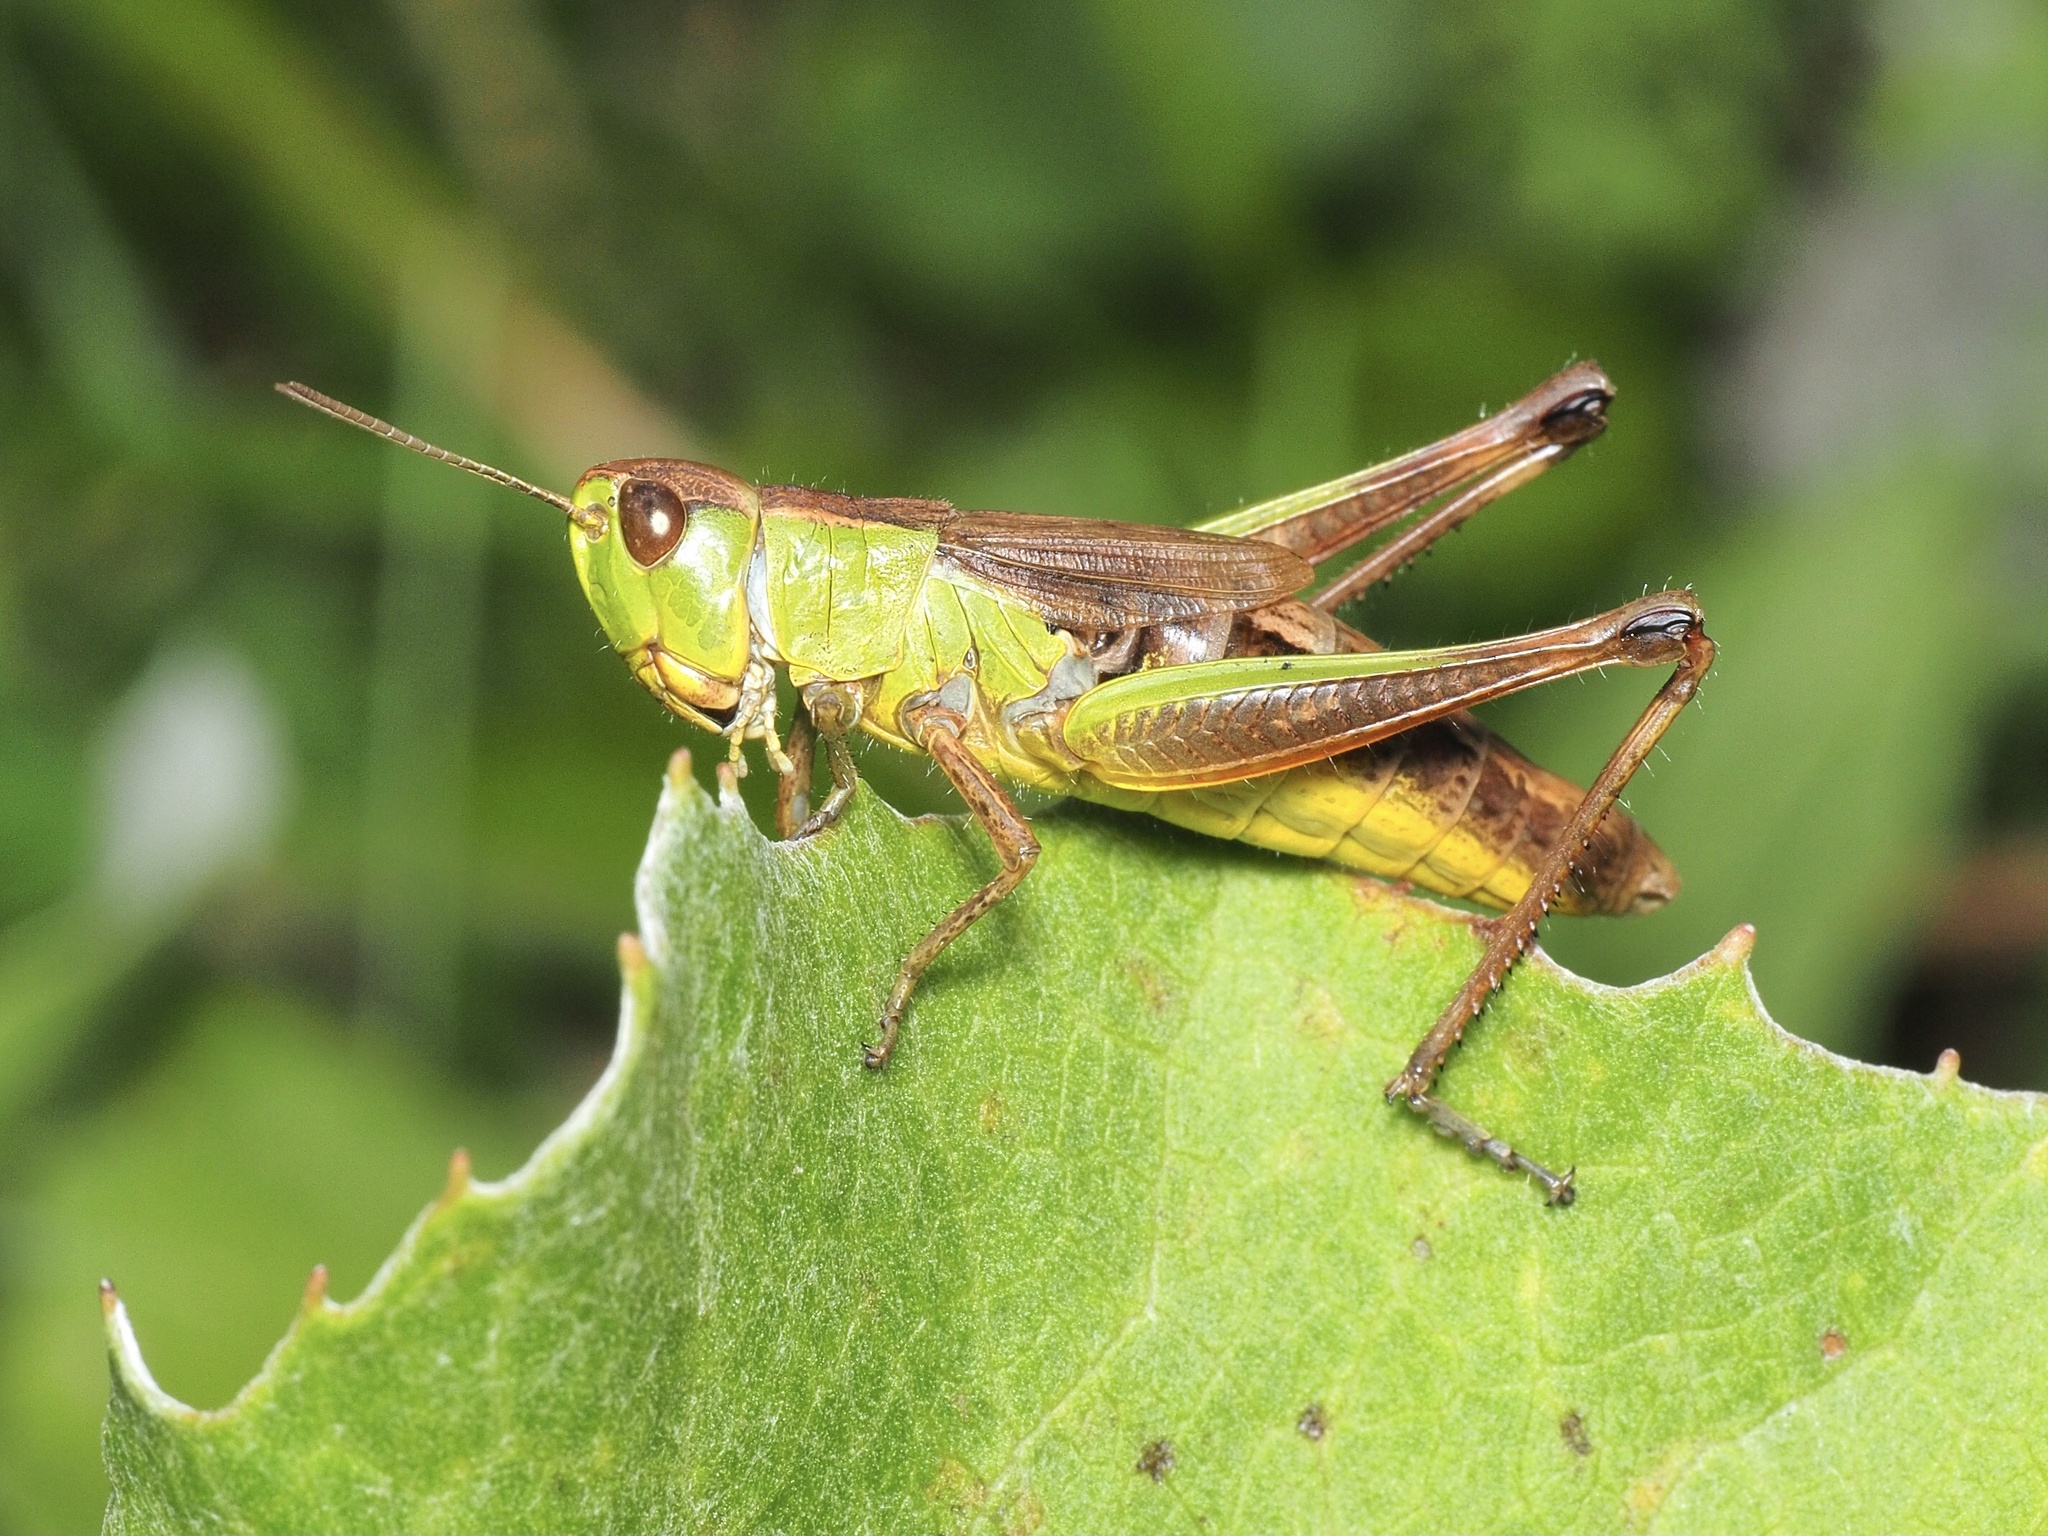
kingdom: Animalia
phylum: Arthropoda
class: Insecta
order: Orthoptera
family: Acrididae
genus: Pseudochorthippus
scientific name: Pseudochorthippus parallelus
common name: Meadow grasshopper
